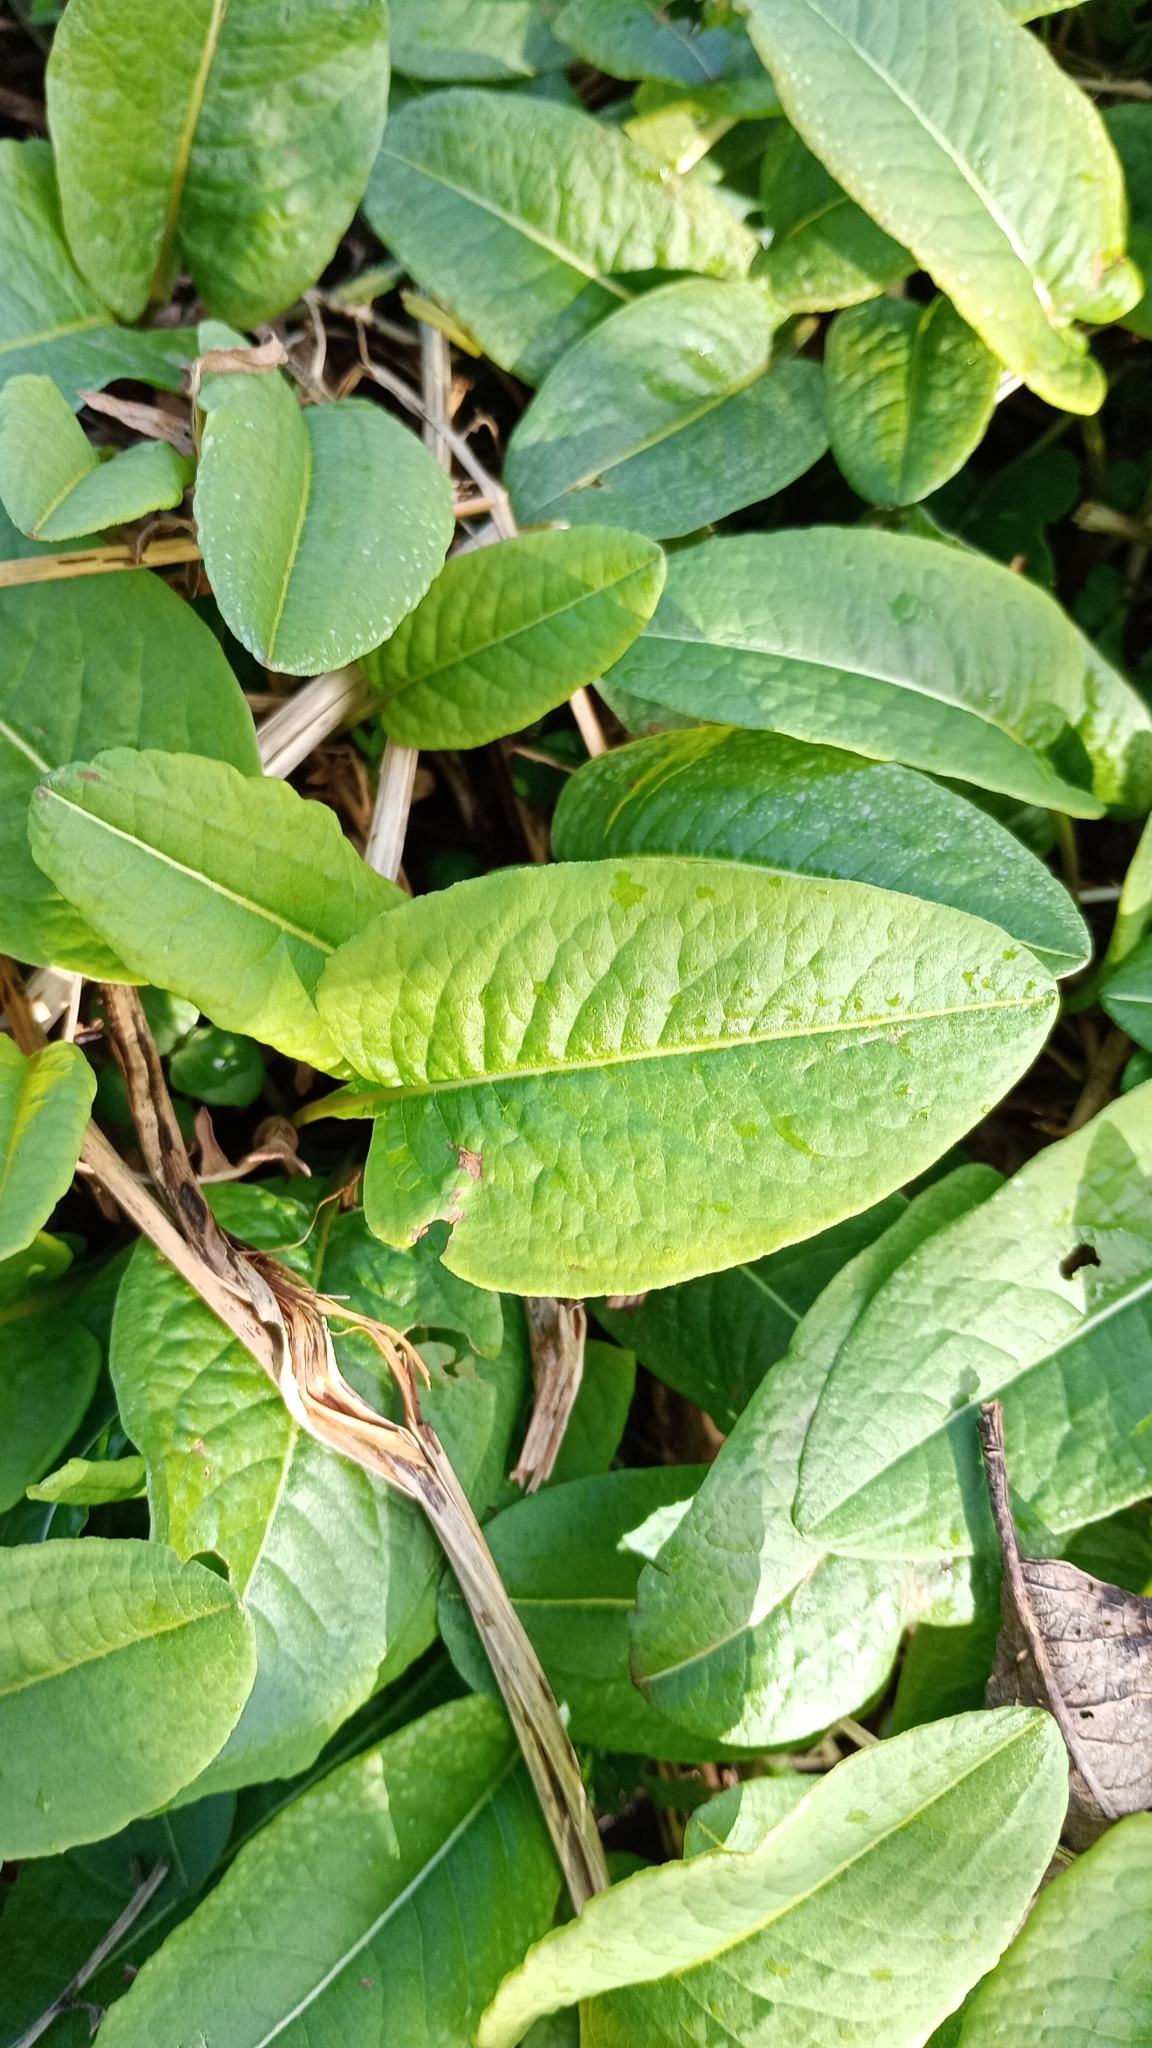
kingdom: Plantae
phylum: Tracheophyta
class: Magnoliopsida
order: Caryophyllales
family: Polygonaceae
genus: Bistorta
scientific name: Bistorta officinalis
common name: Common bistort
